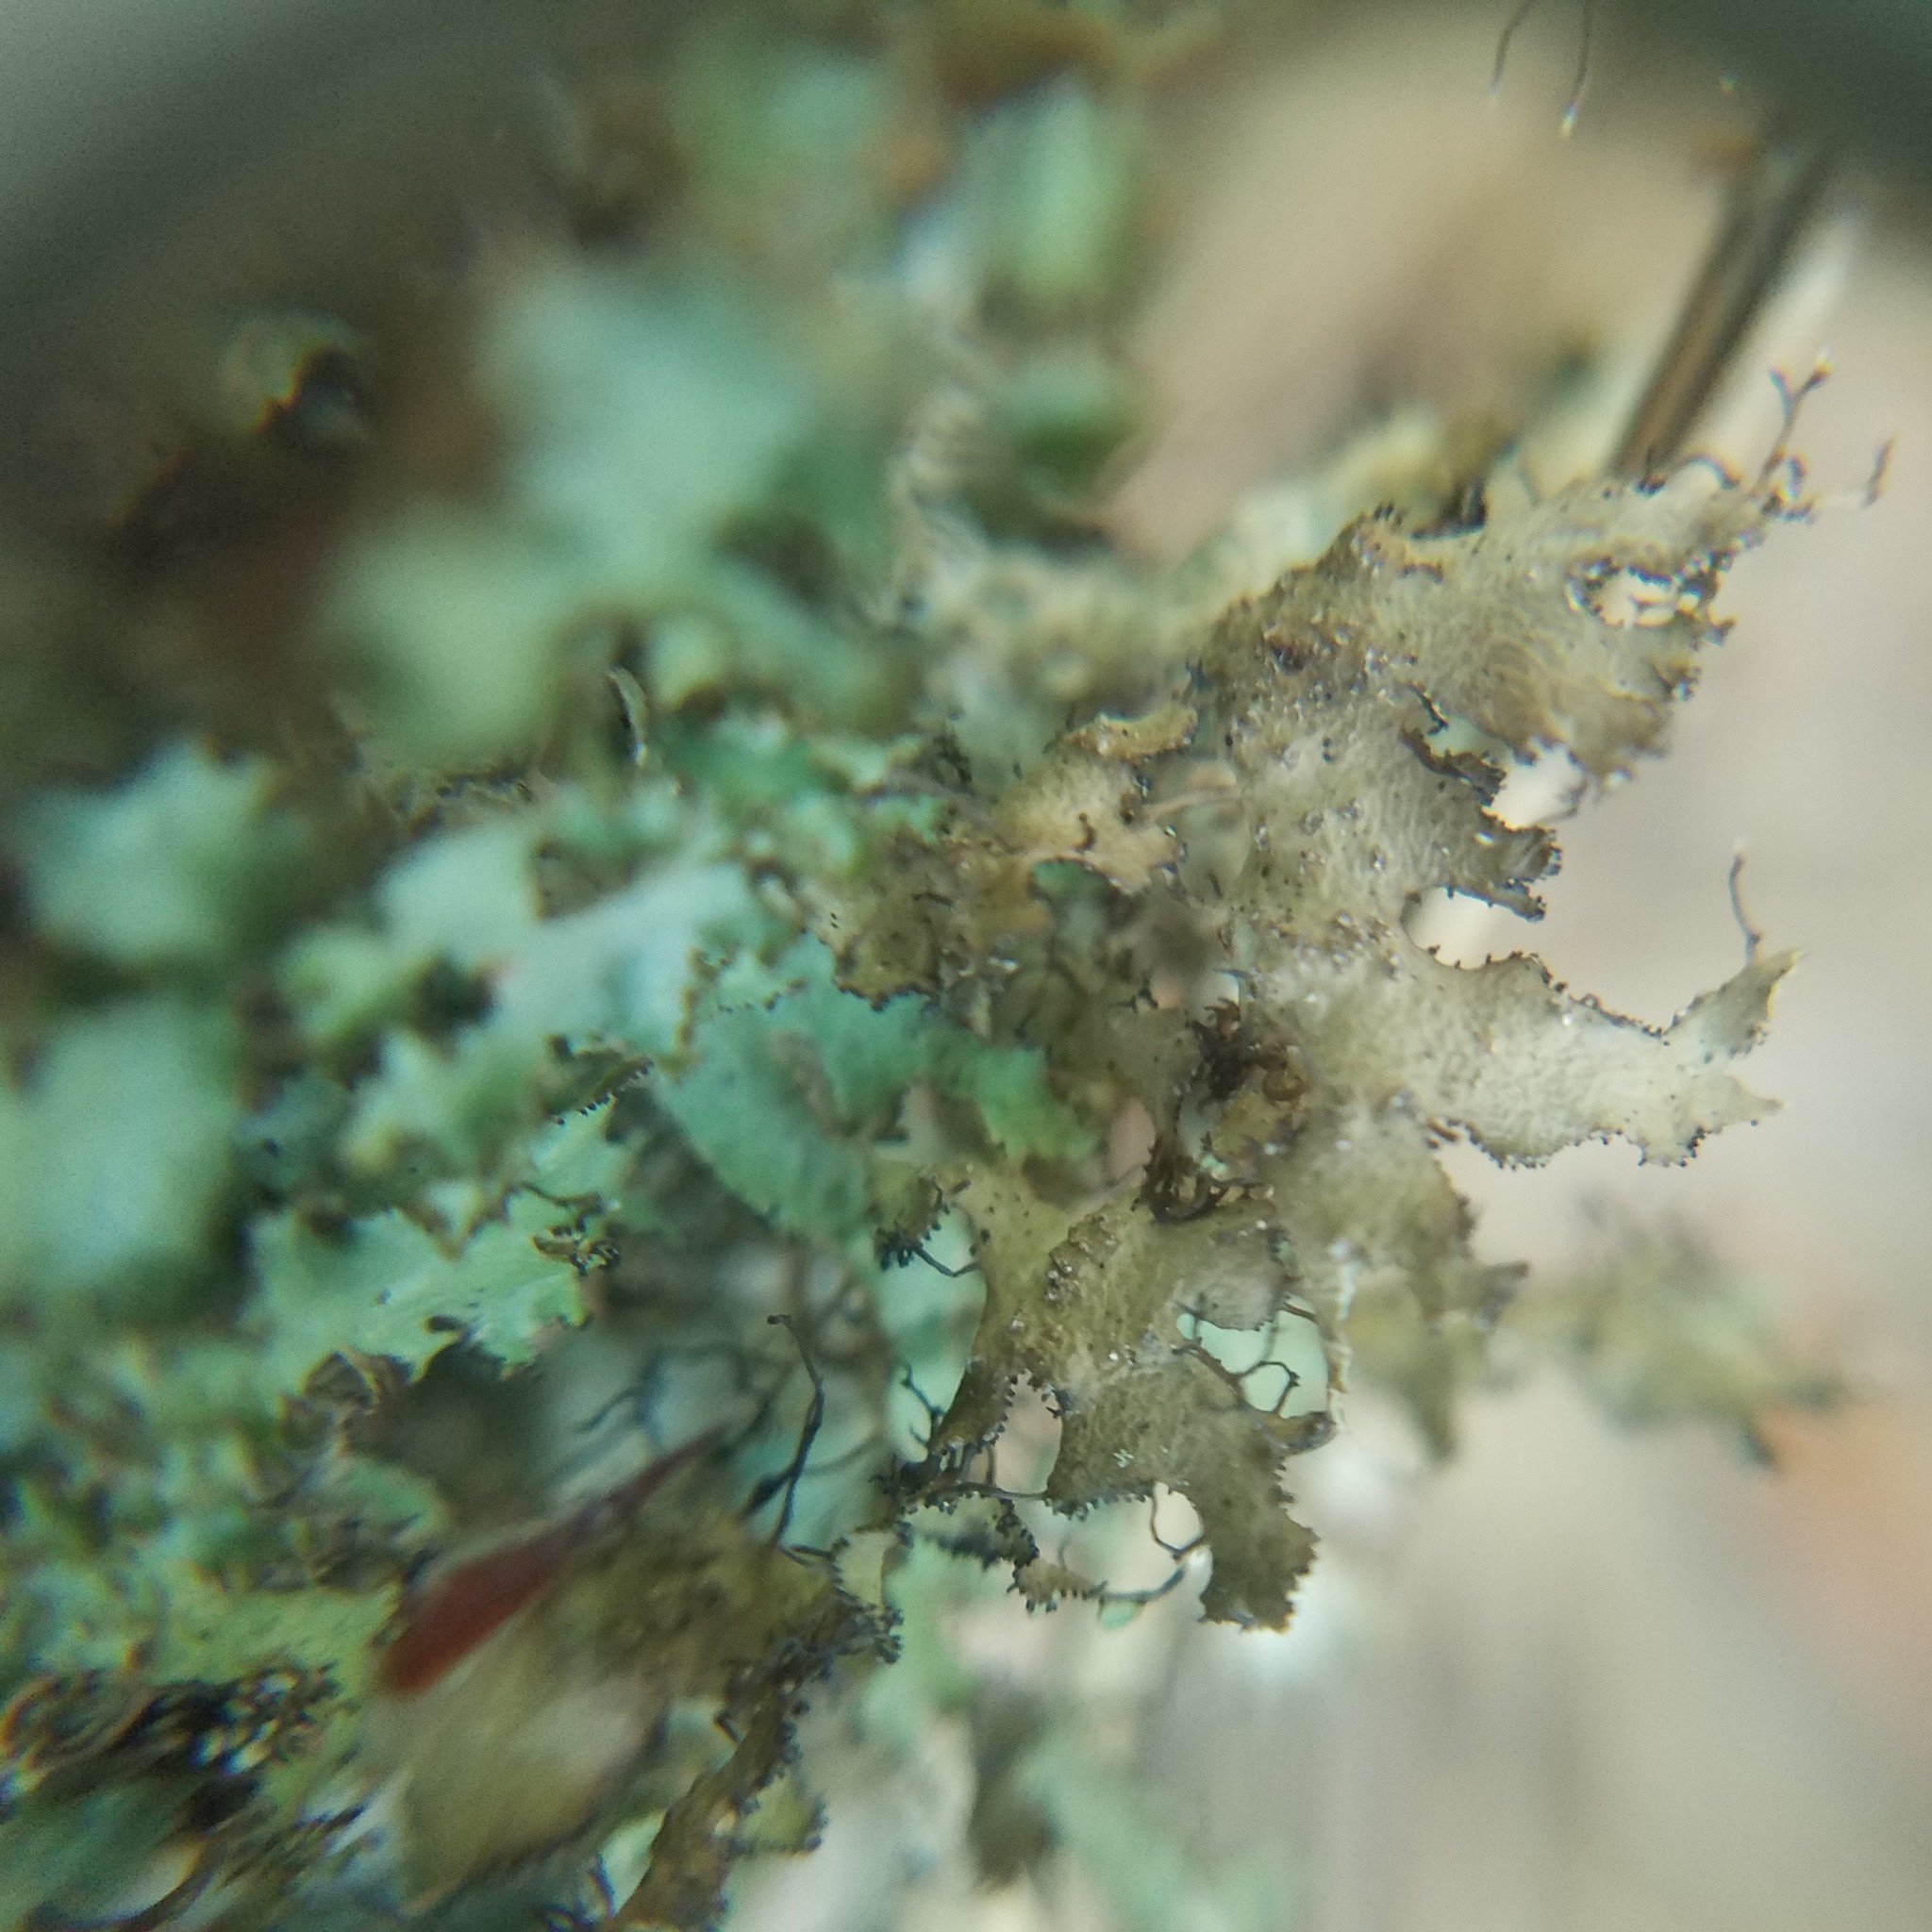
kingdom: Fungi
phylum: Ascomycota
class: Lecanoromycetes
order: Lecanorales
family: Parmeliaceae
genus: Tuckermannopsis
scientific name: Tuckermannopsis ciliaris
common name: Ciliate wrinkle-lichen
